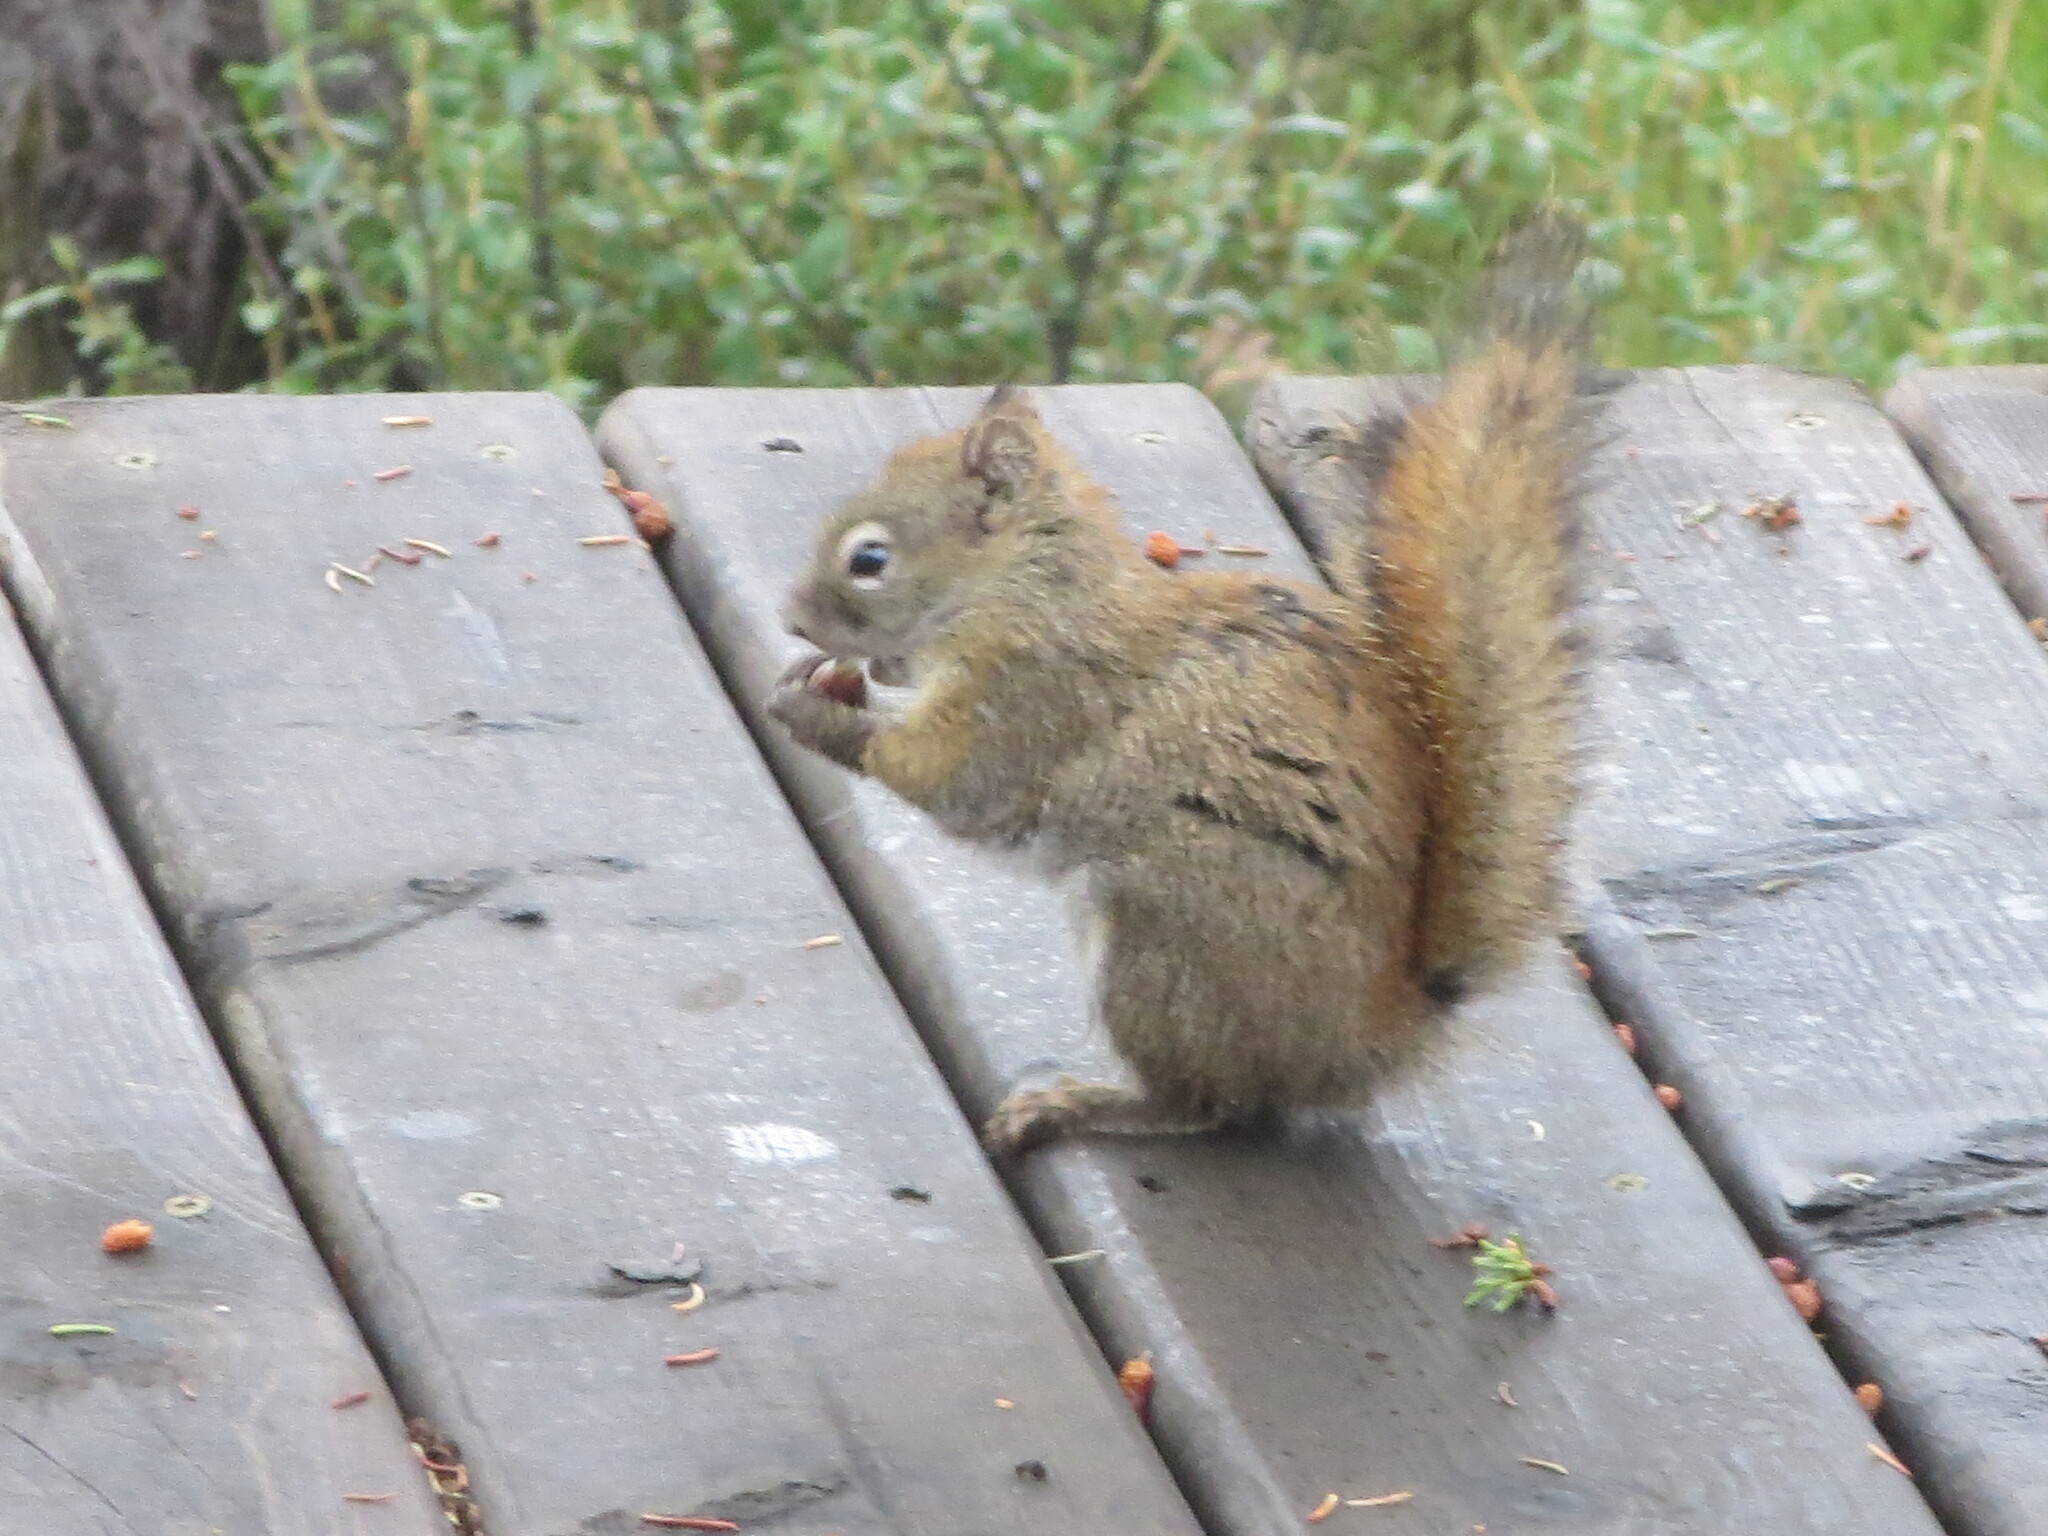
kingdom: Animalia
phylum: Chordata
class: Mammalia
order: Rodentia
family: Sciuridae
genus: Tamiasciurus
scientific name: Tamiasciurus hudsonicus
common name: Red squirrel
